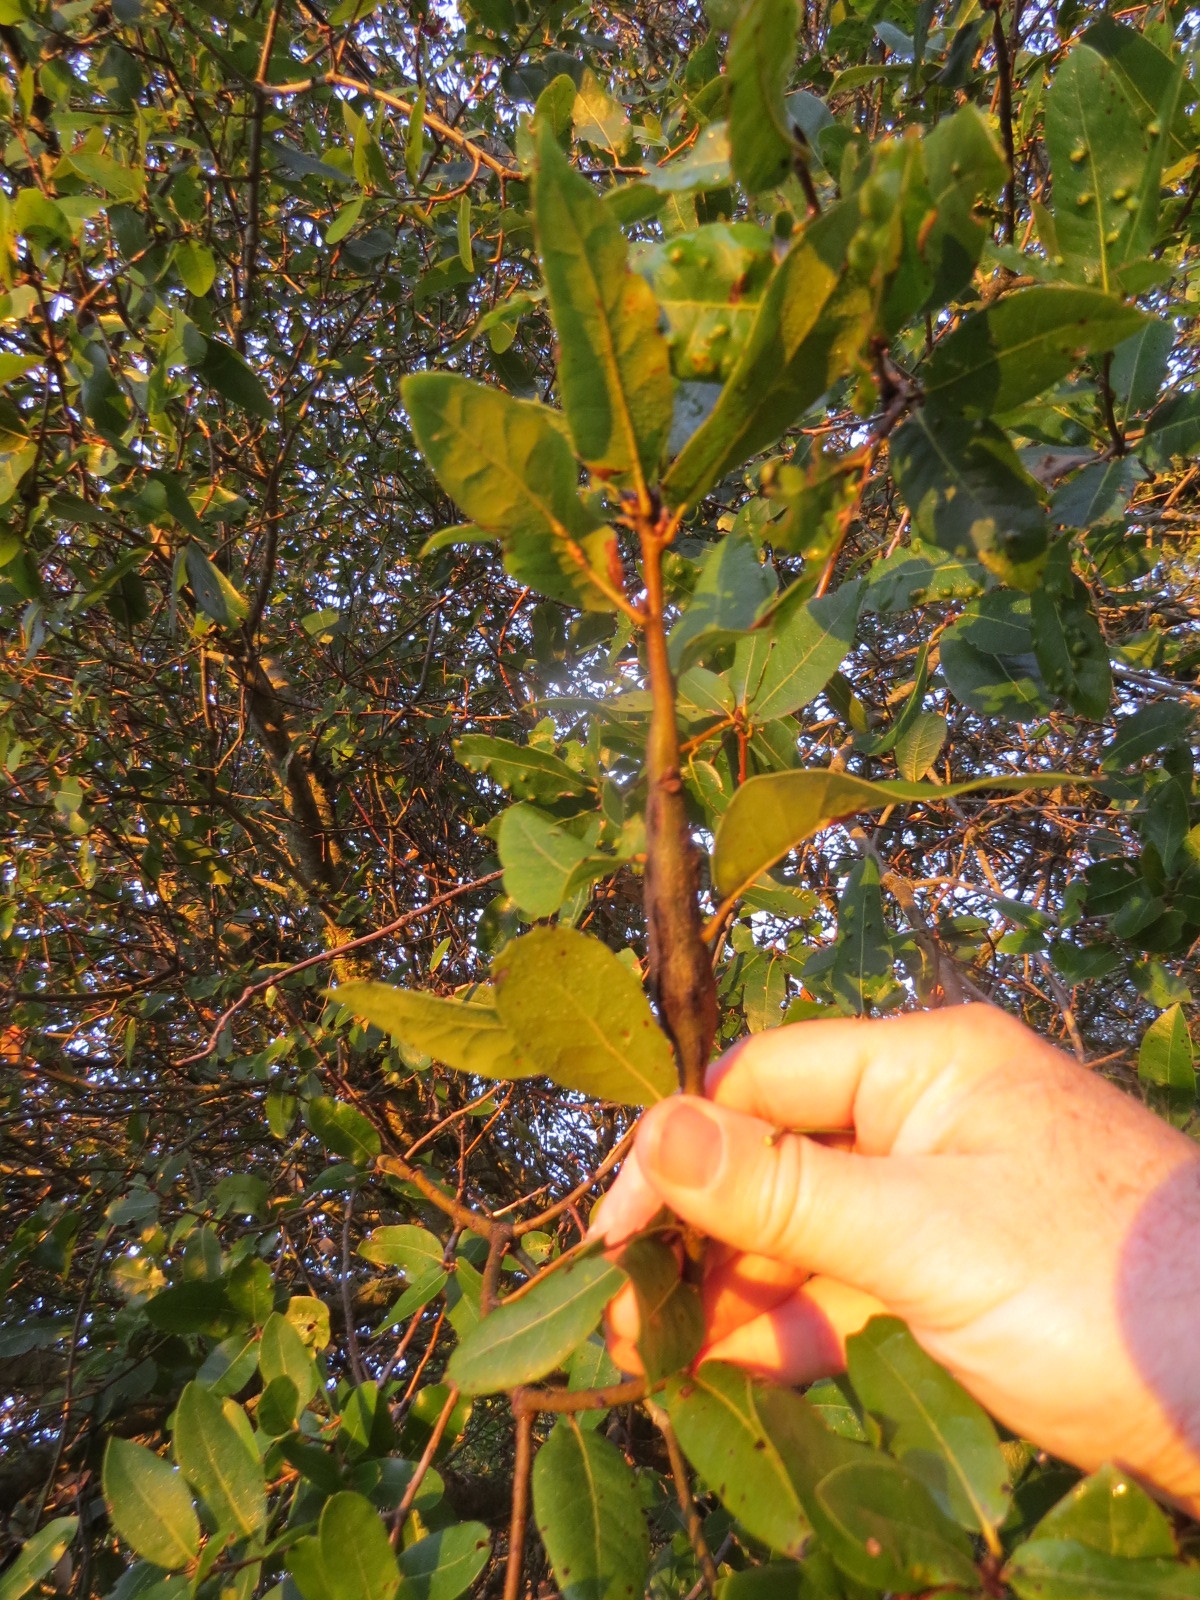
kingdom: Animalia
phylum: Arthropoda
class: Insecta
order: Hymenoptera
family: Cynipidae
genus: Callirhytis
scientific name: Callirhytis
